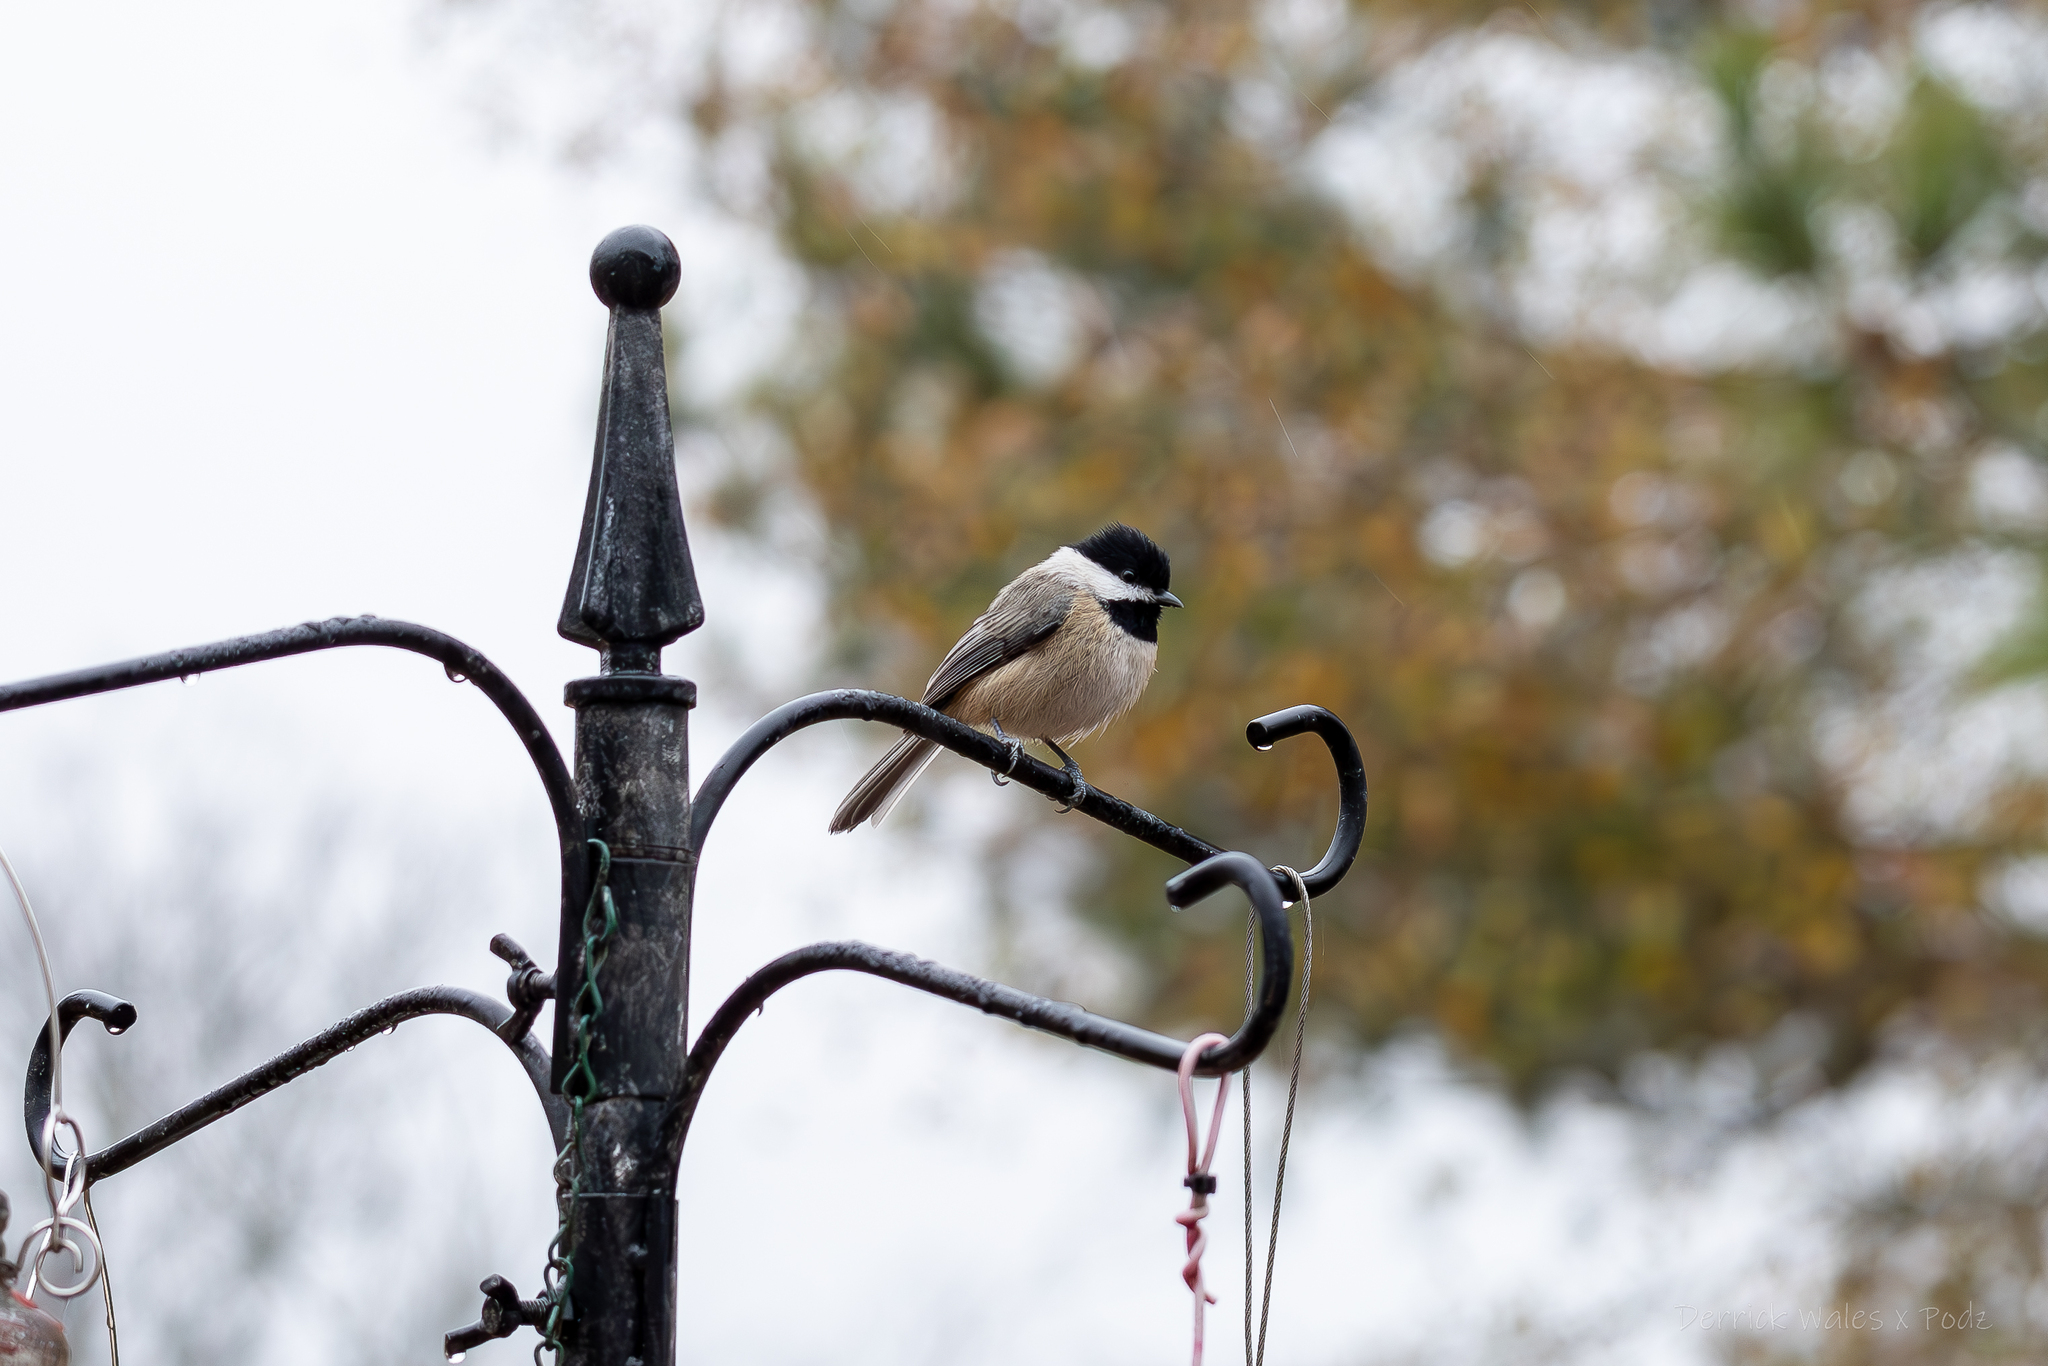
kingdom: Animalia
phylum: Chordata
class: Aves
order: Passeriformes
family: Paridae
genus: Poecile
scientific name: Poecile carolinensis
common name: Carolina chickadee
